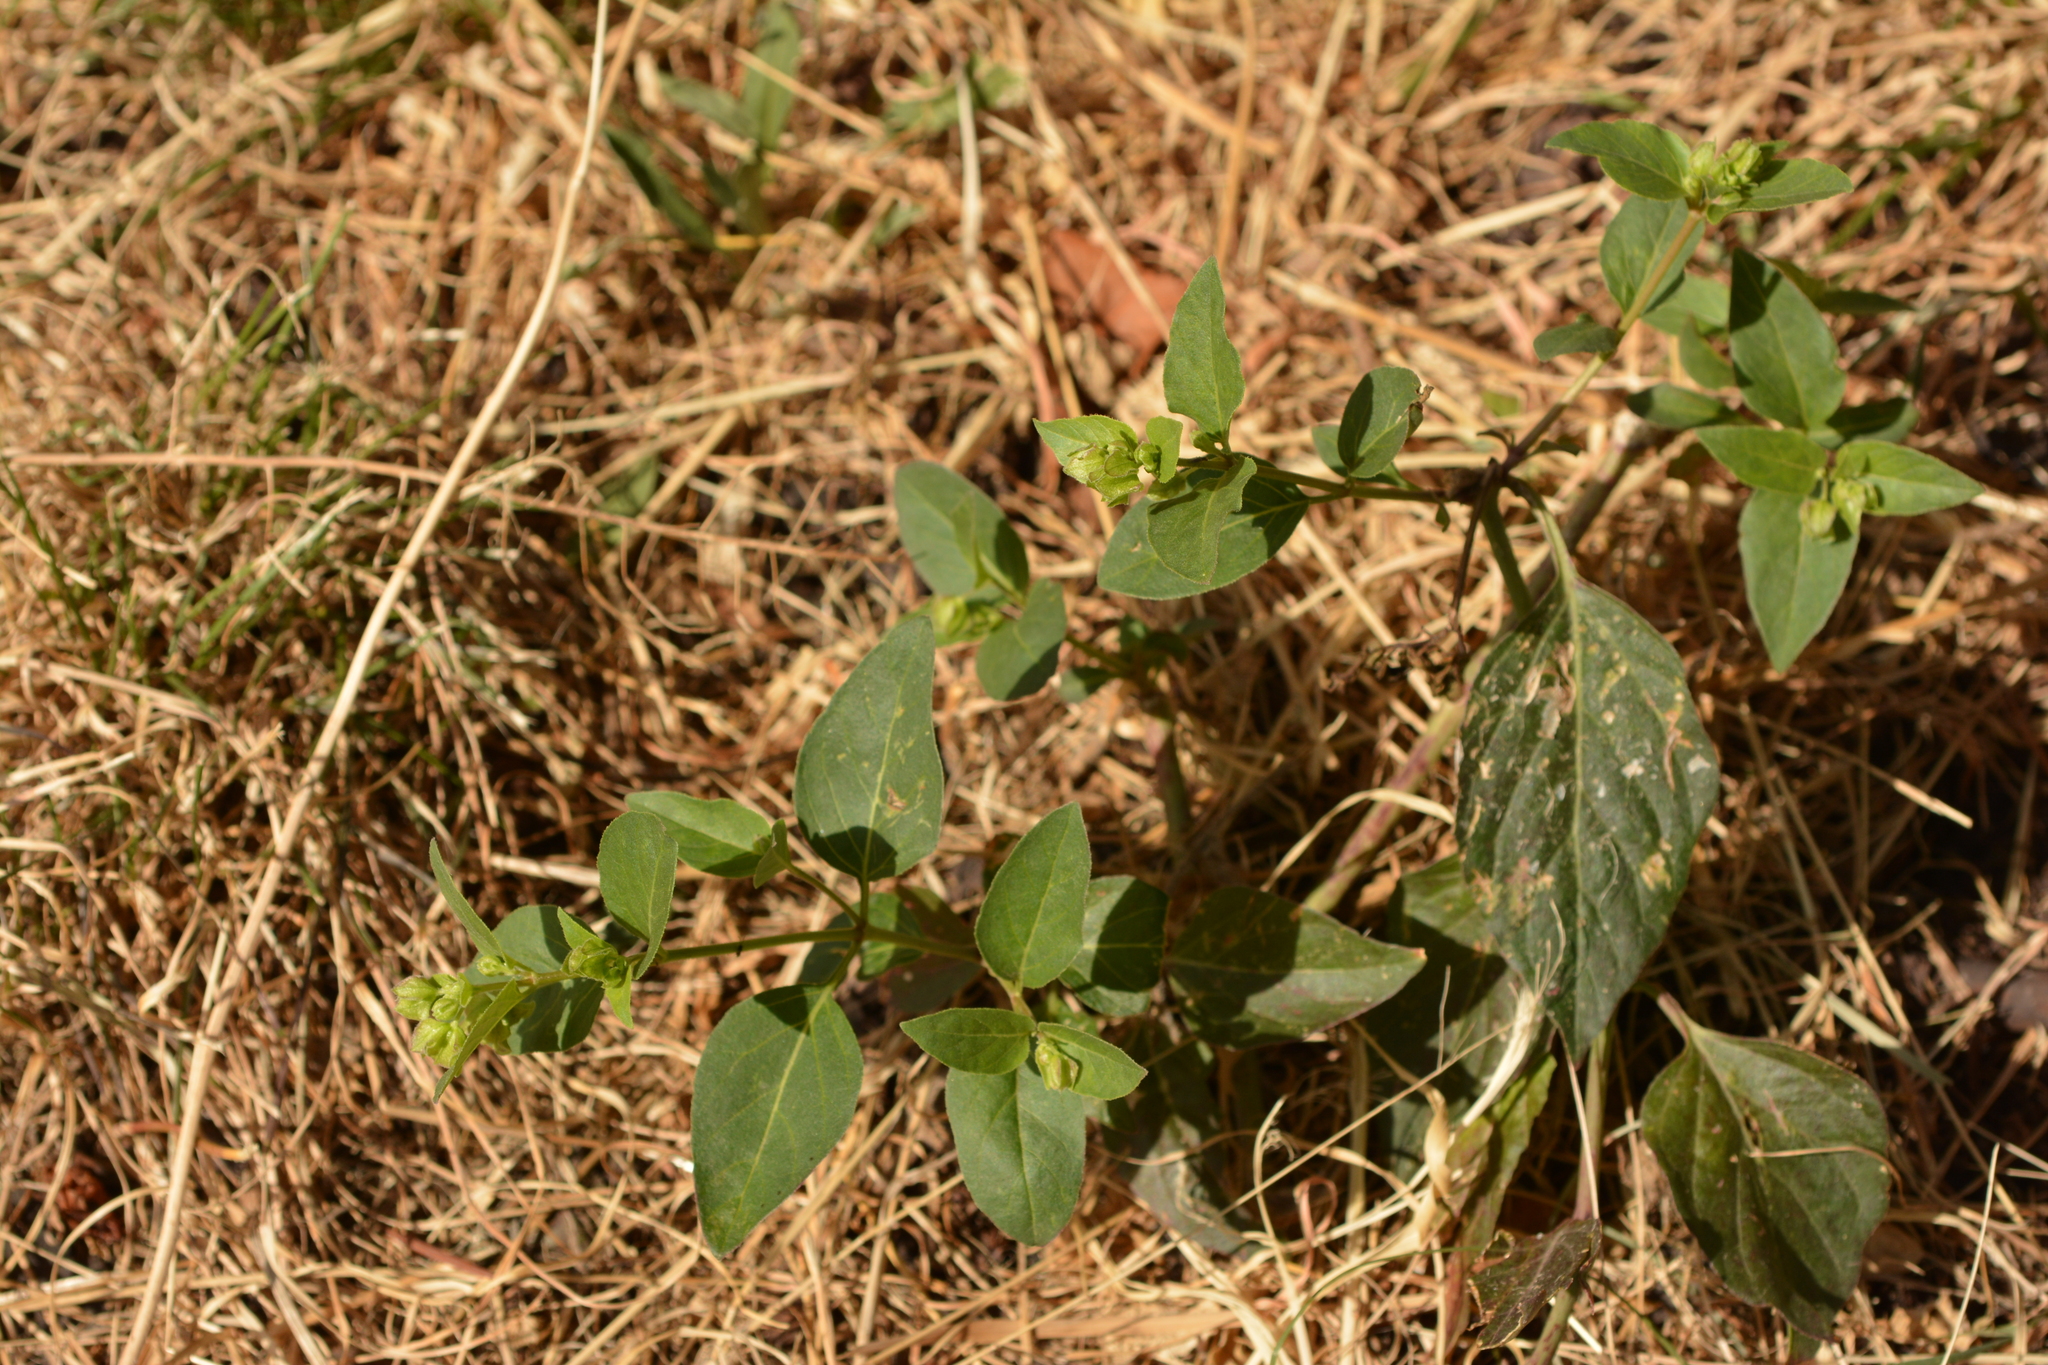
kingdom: Plantae
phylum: Tracheophyta
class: Magnoliopsida
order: Caryophyllales
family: Nyctaginaceae
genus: Mirabilis
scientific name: Mirabilis nyctaginea
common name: Umbrella wort
